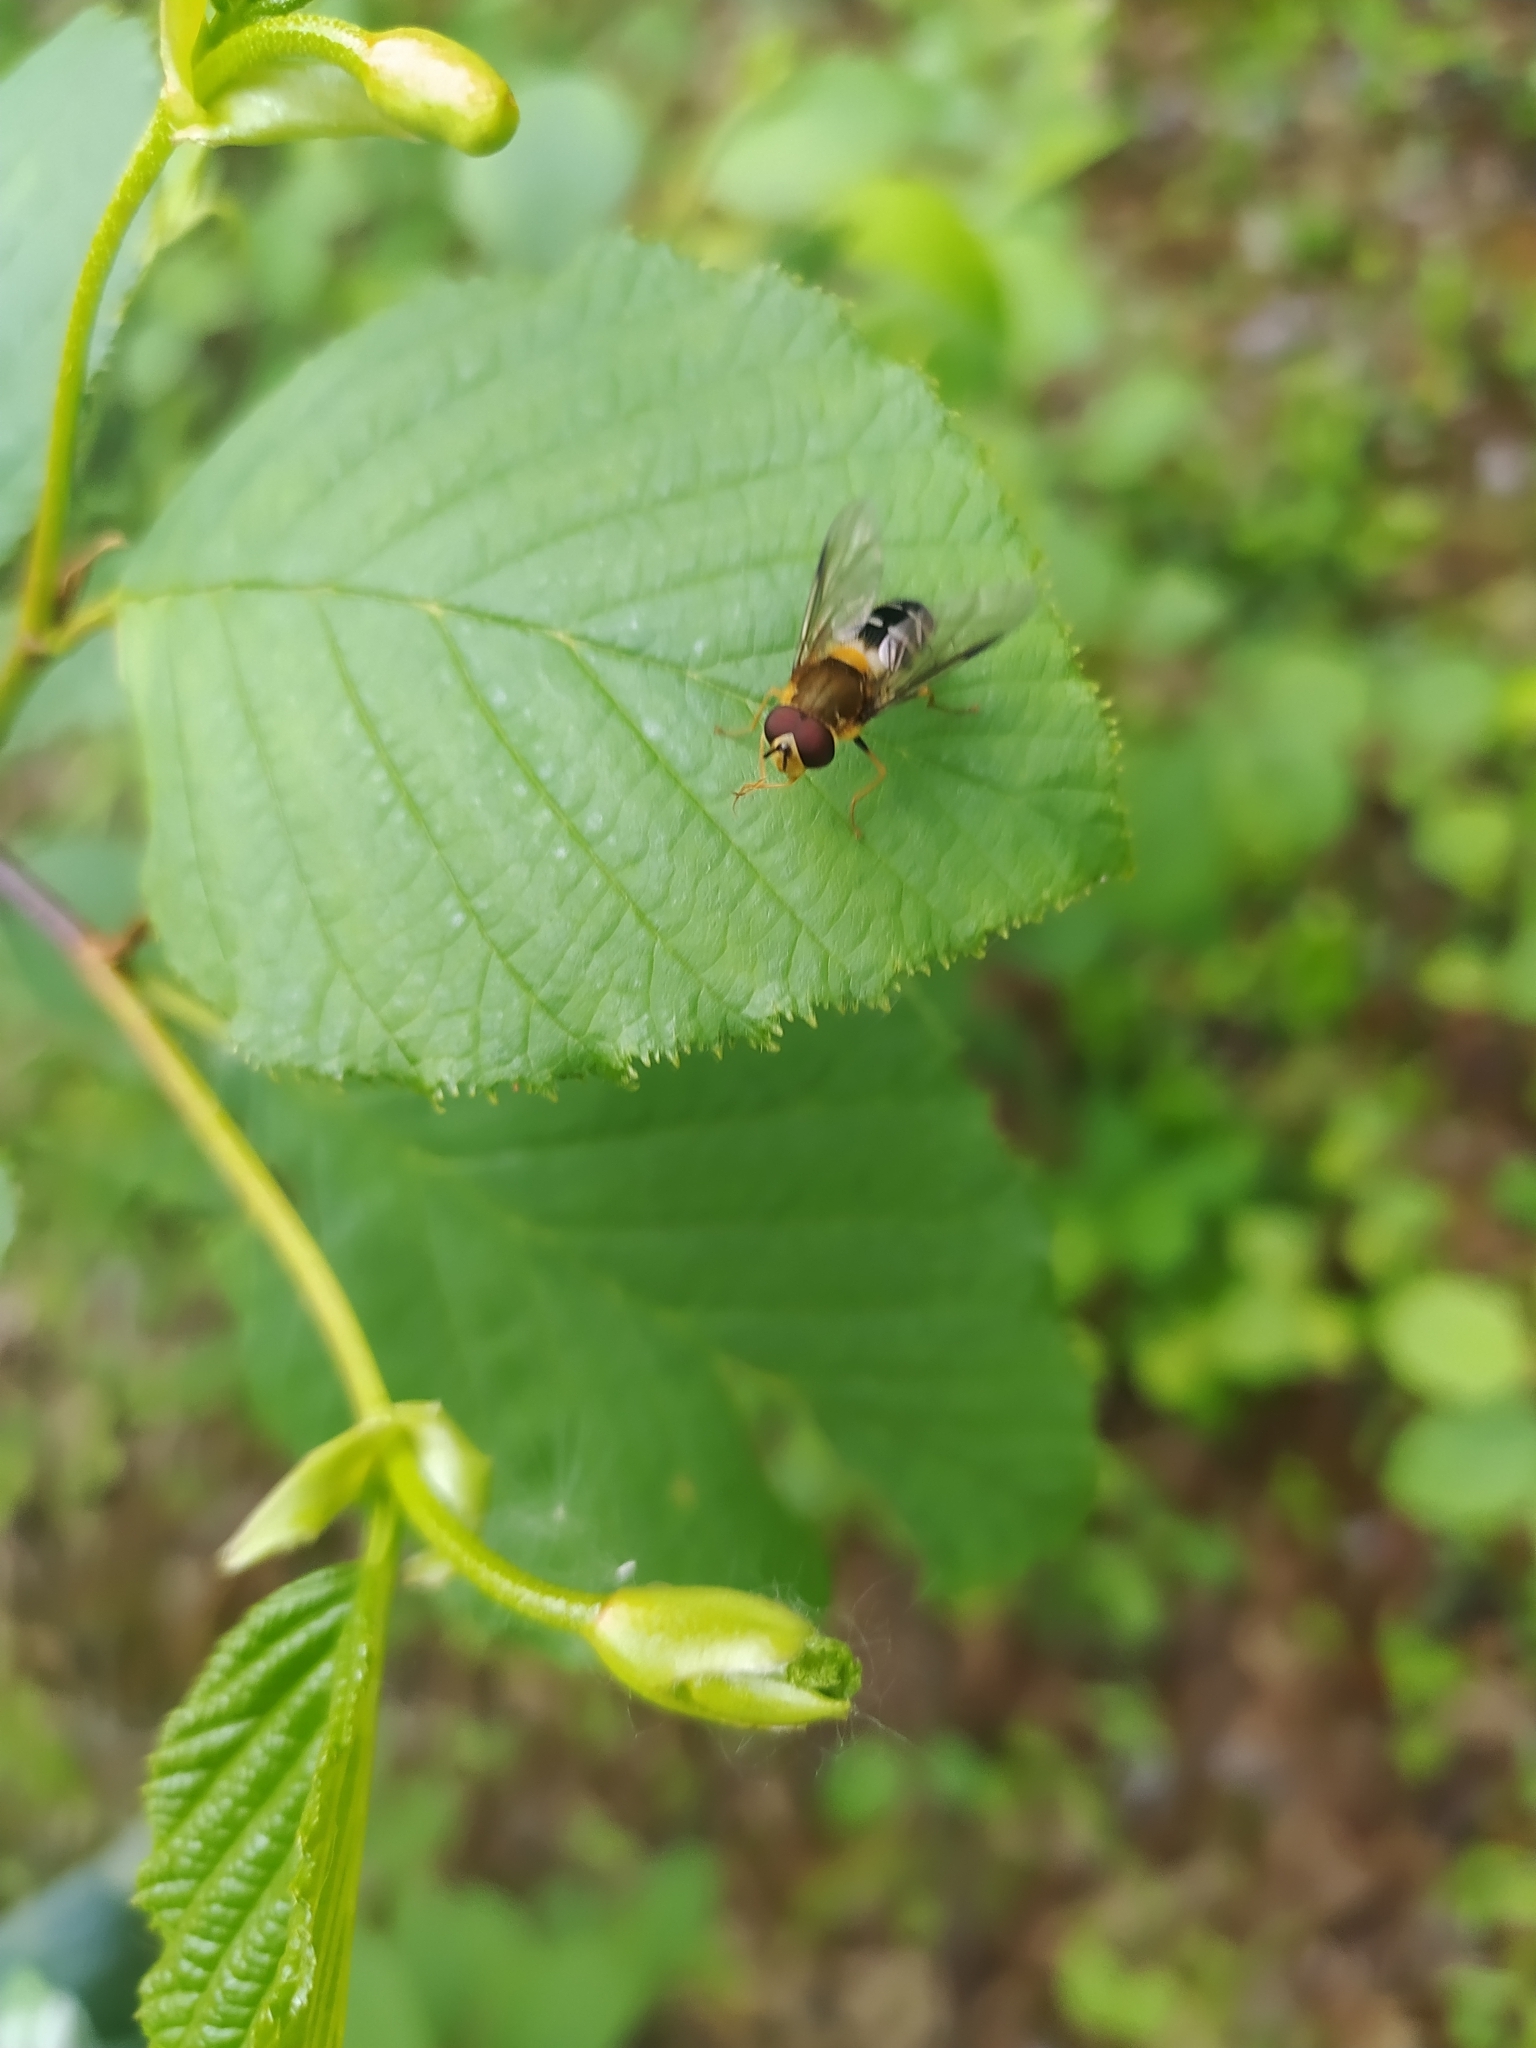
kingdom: Animalia
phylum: Arthropoda
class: Insecta
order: Diptera
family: Syrphidae
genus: Leucozona
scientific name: Leucozona glaucia
